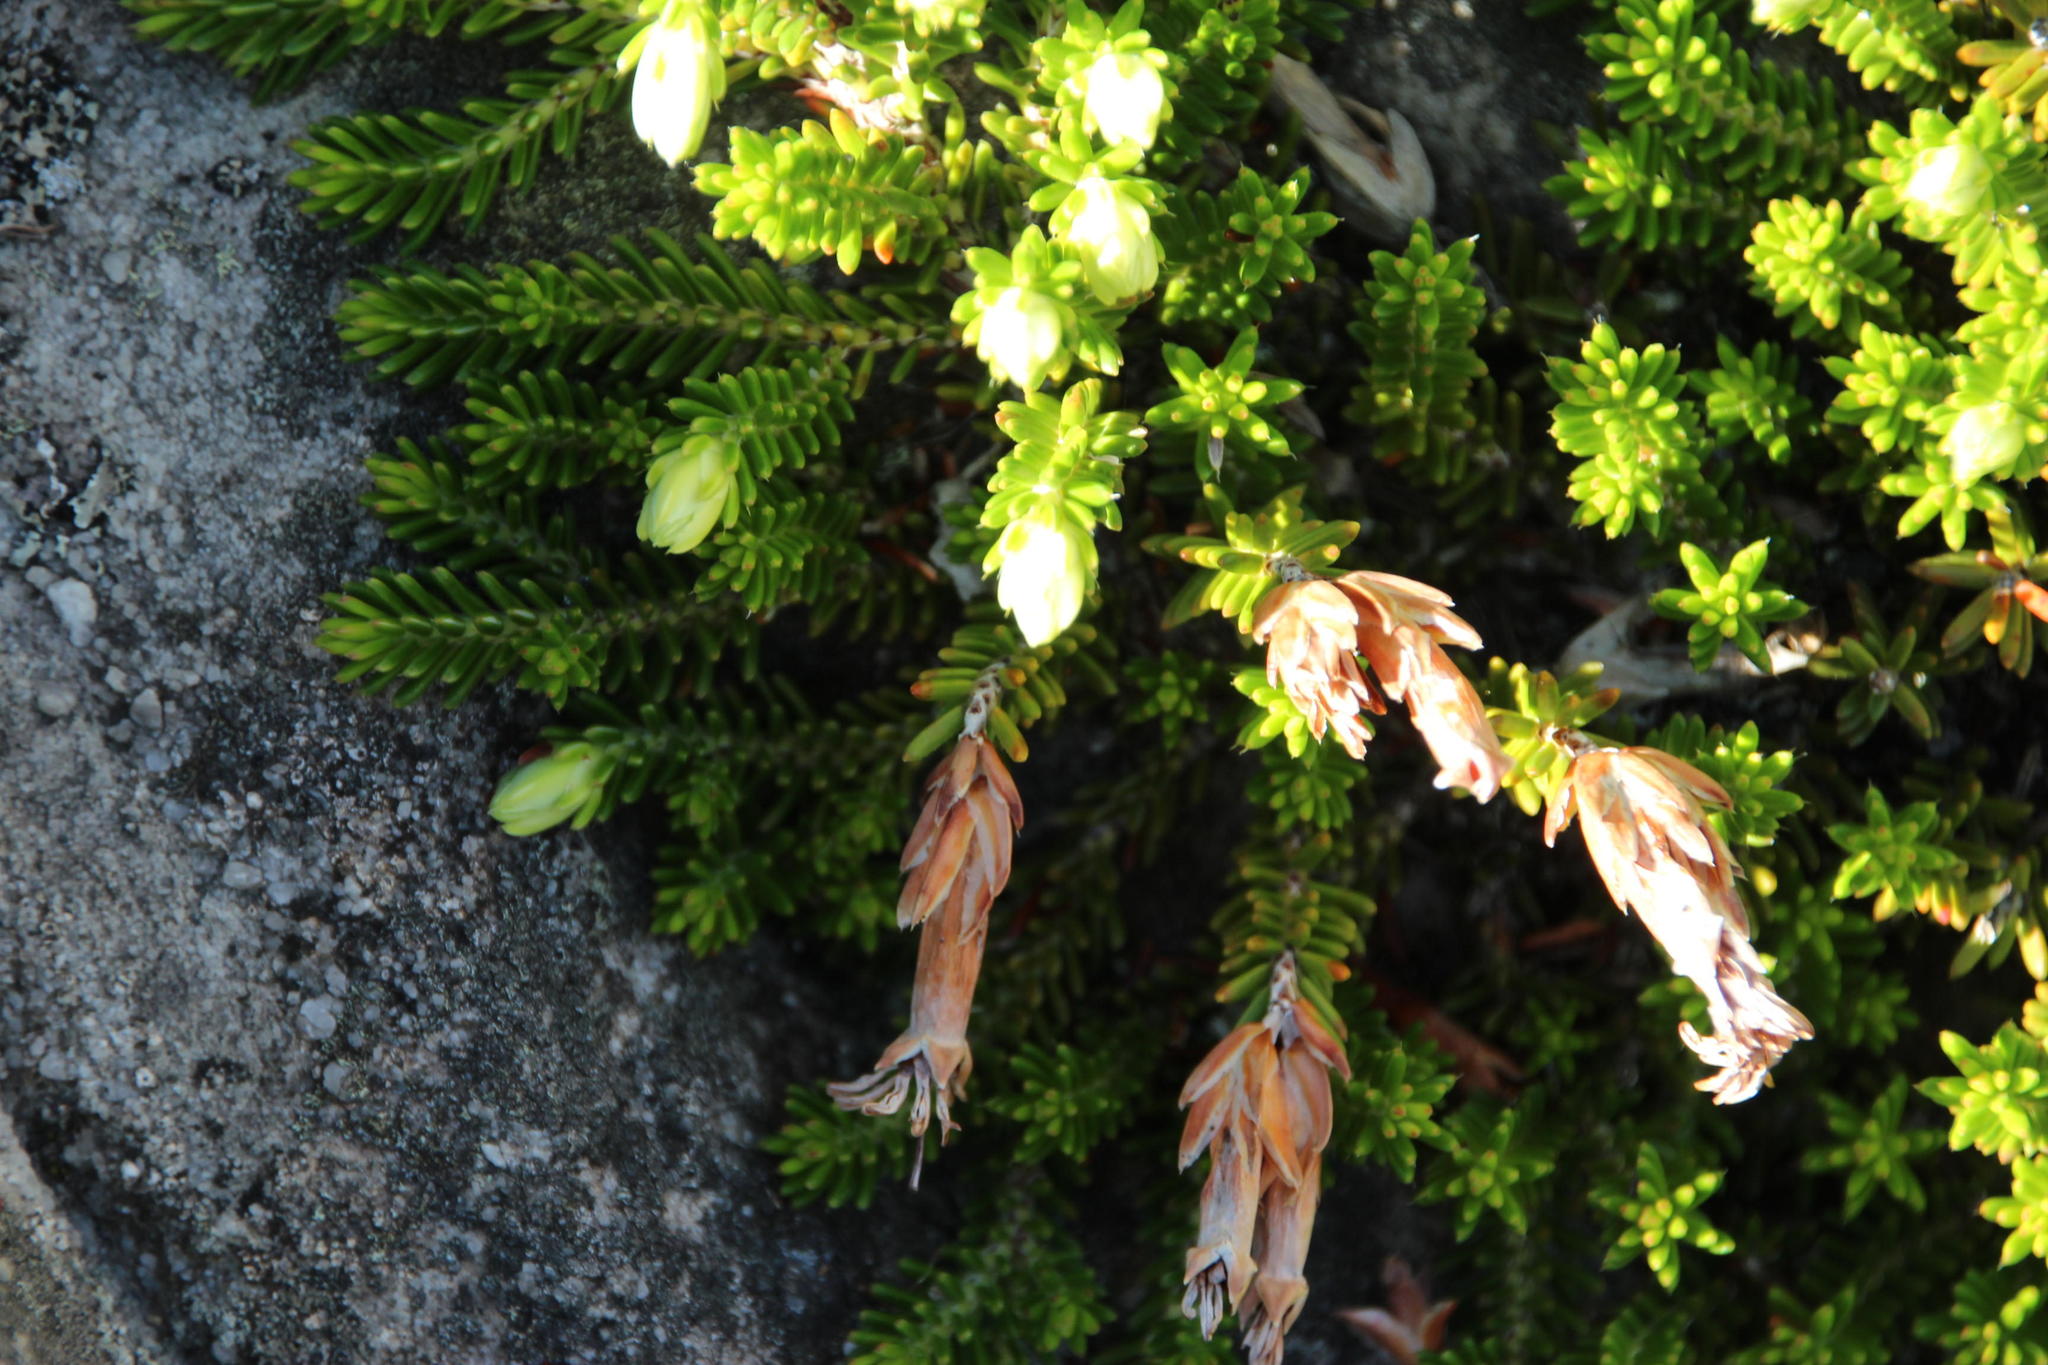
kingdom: Plantae
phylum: Tracheophyta
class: Magnoliopsida
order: Ericales
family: Ericaceae
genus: Erica
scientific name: Erica banksia
